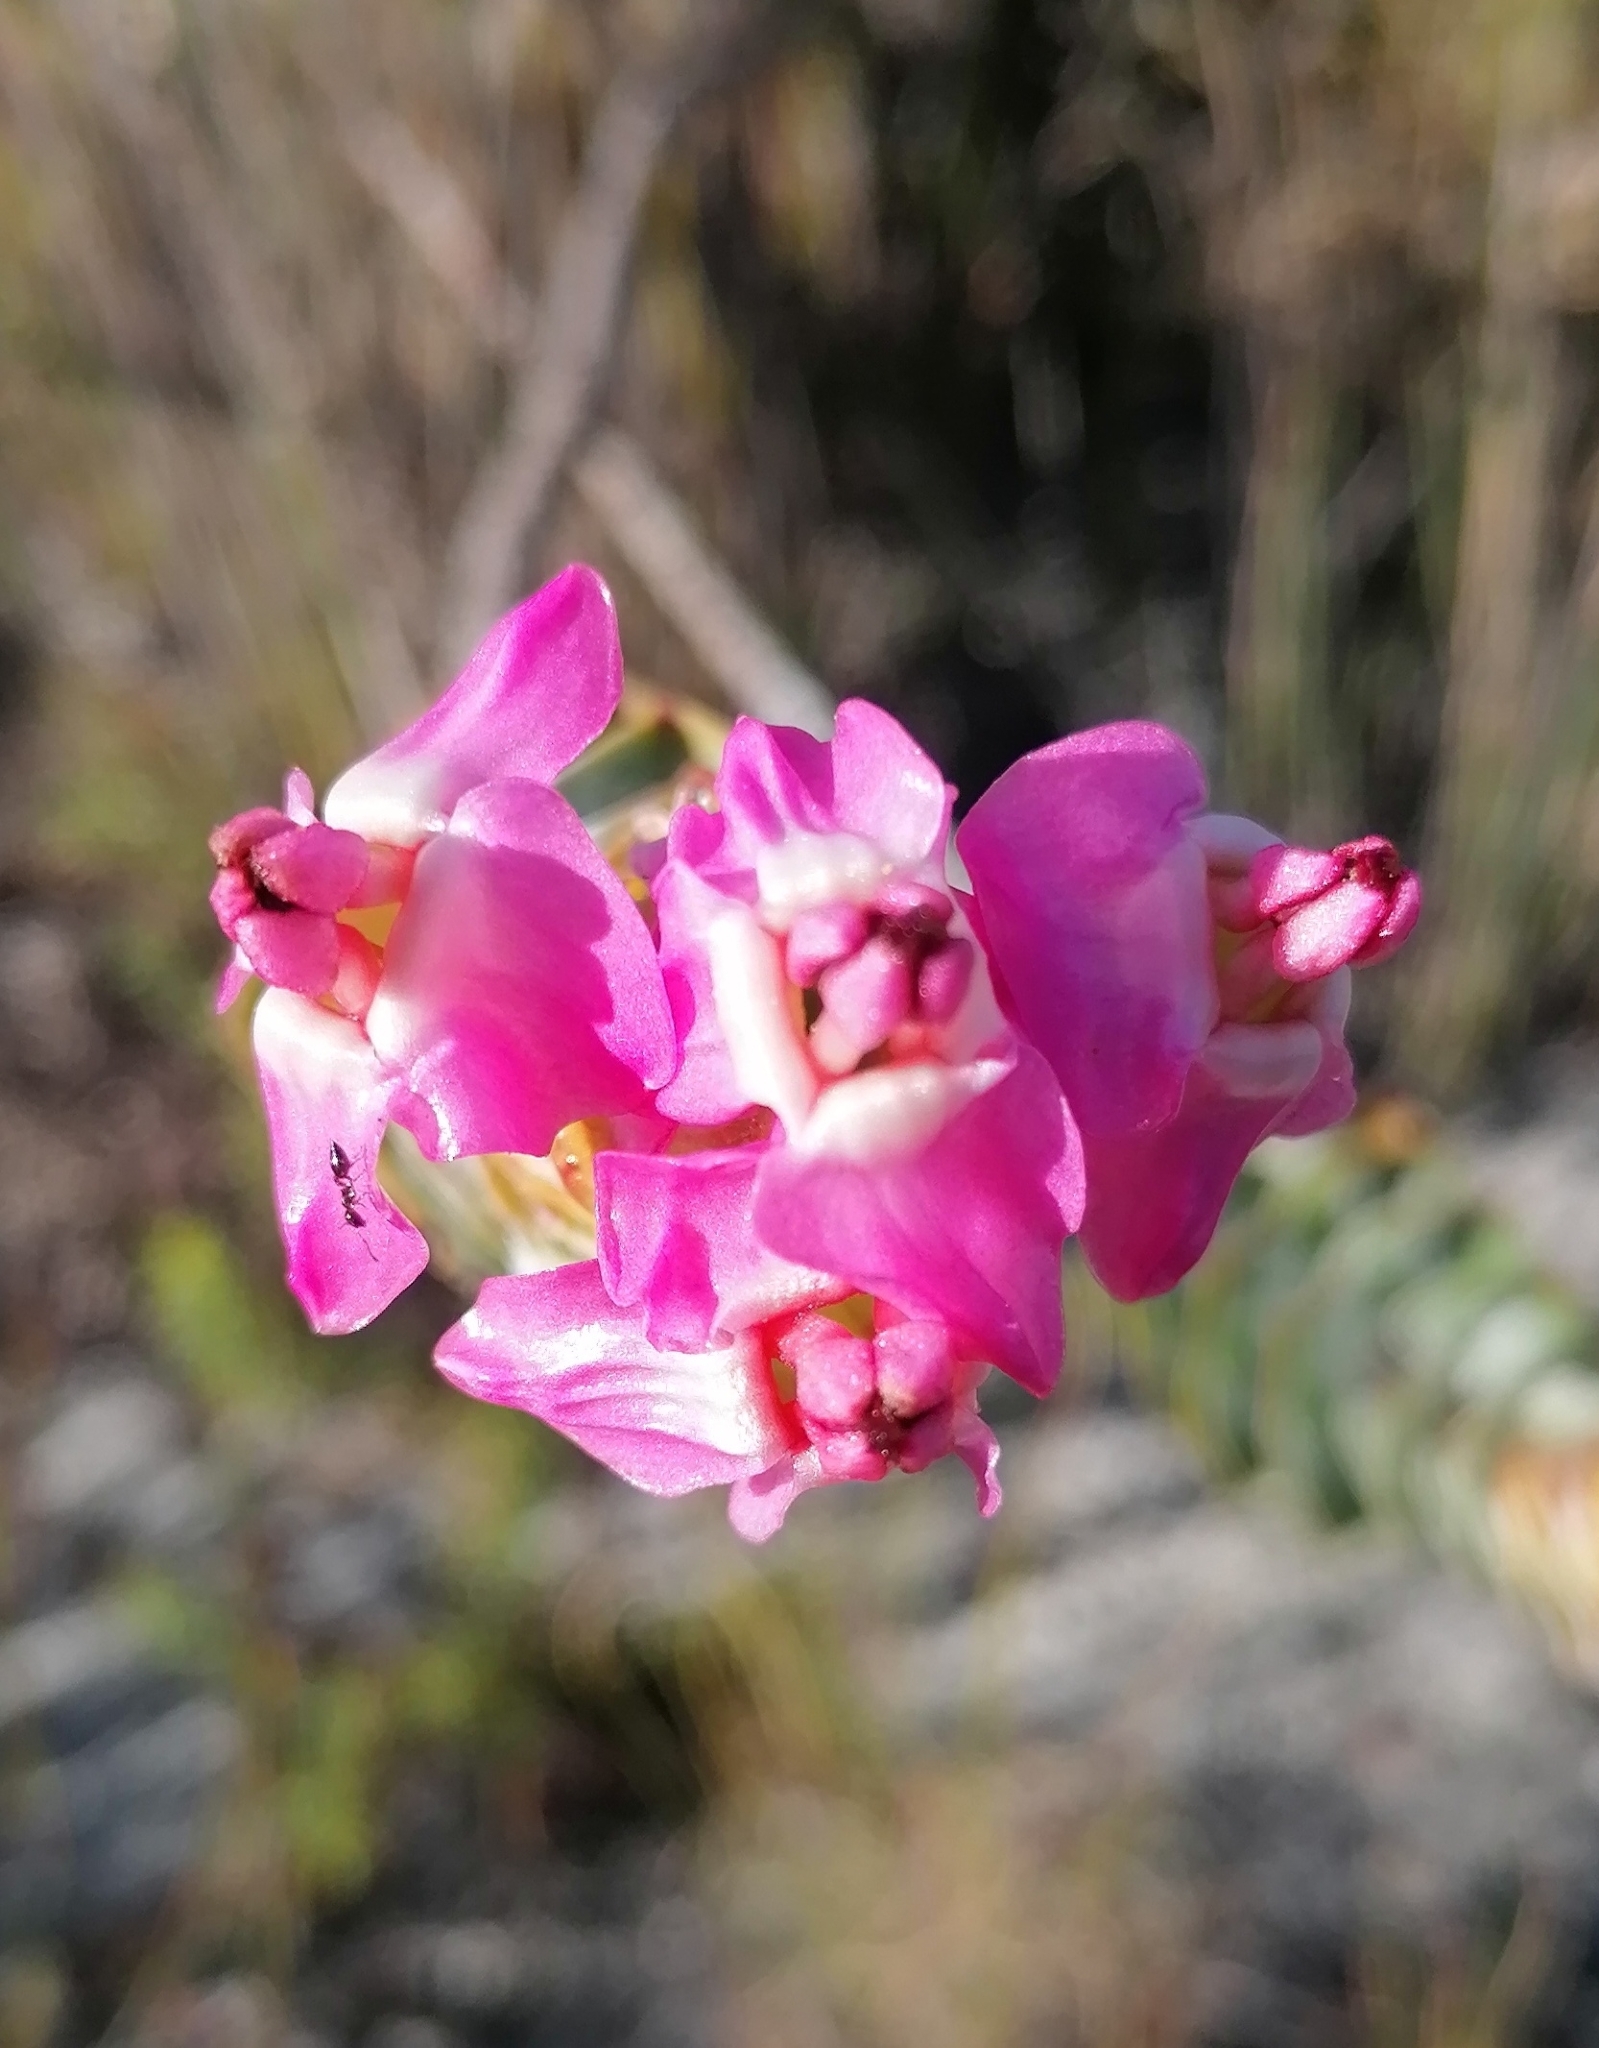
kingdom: Plantae
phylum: Tracheophyta
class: Magnoliopsida
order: Myrtales
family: Penaeaceae
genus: Saltera
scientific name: Saltera sarcocolla
